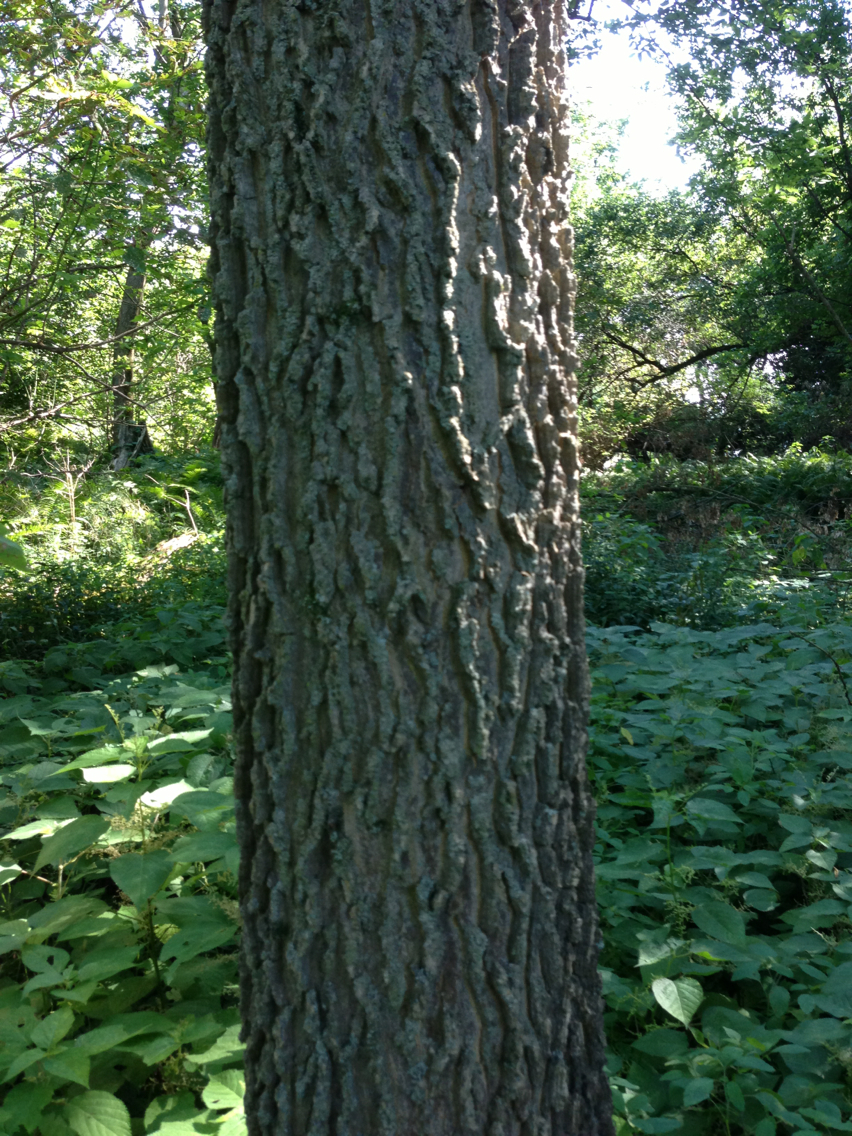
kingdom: Plantae
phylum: Tracheophyta
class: Magnoliopsida
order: Rosales
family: Cannabaceae
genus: Celtis
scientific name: Celtis occidentalis
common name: Common hackberry
